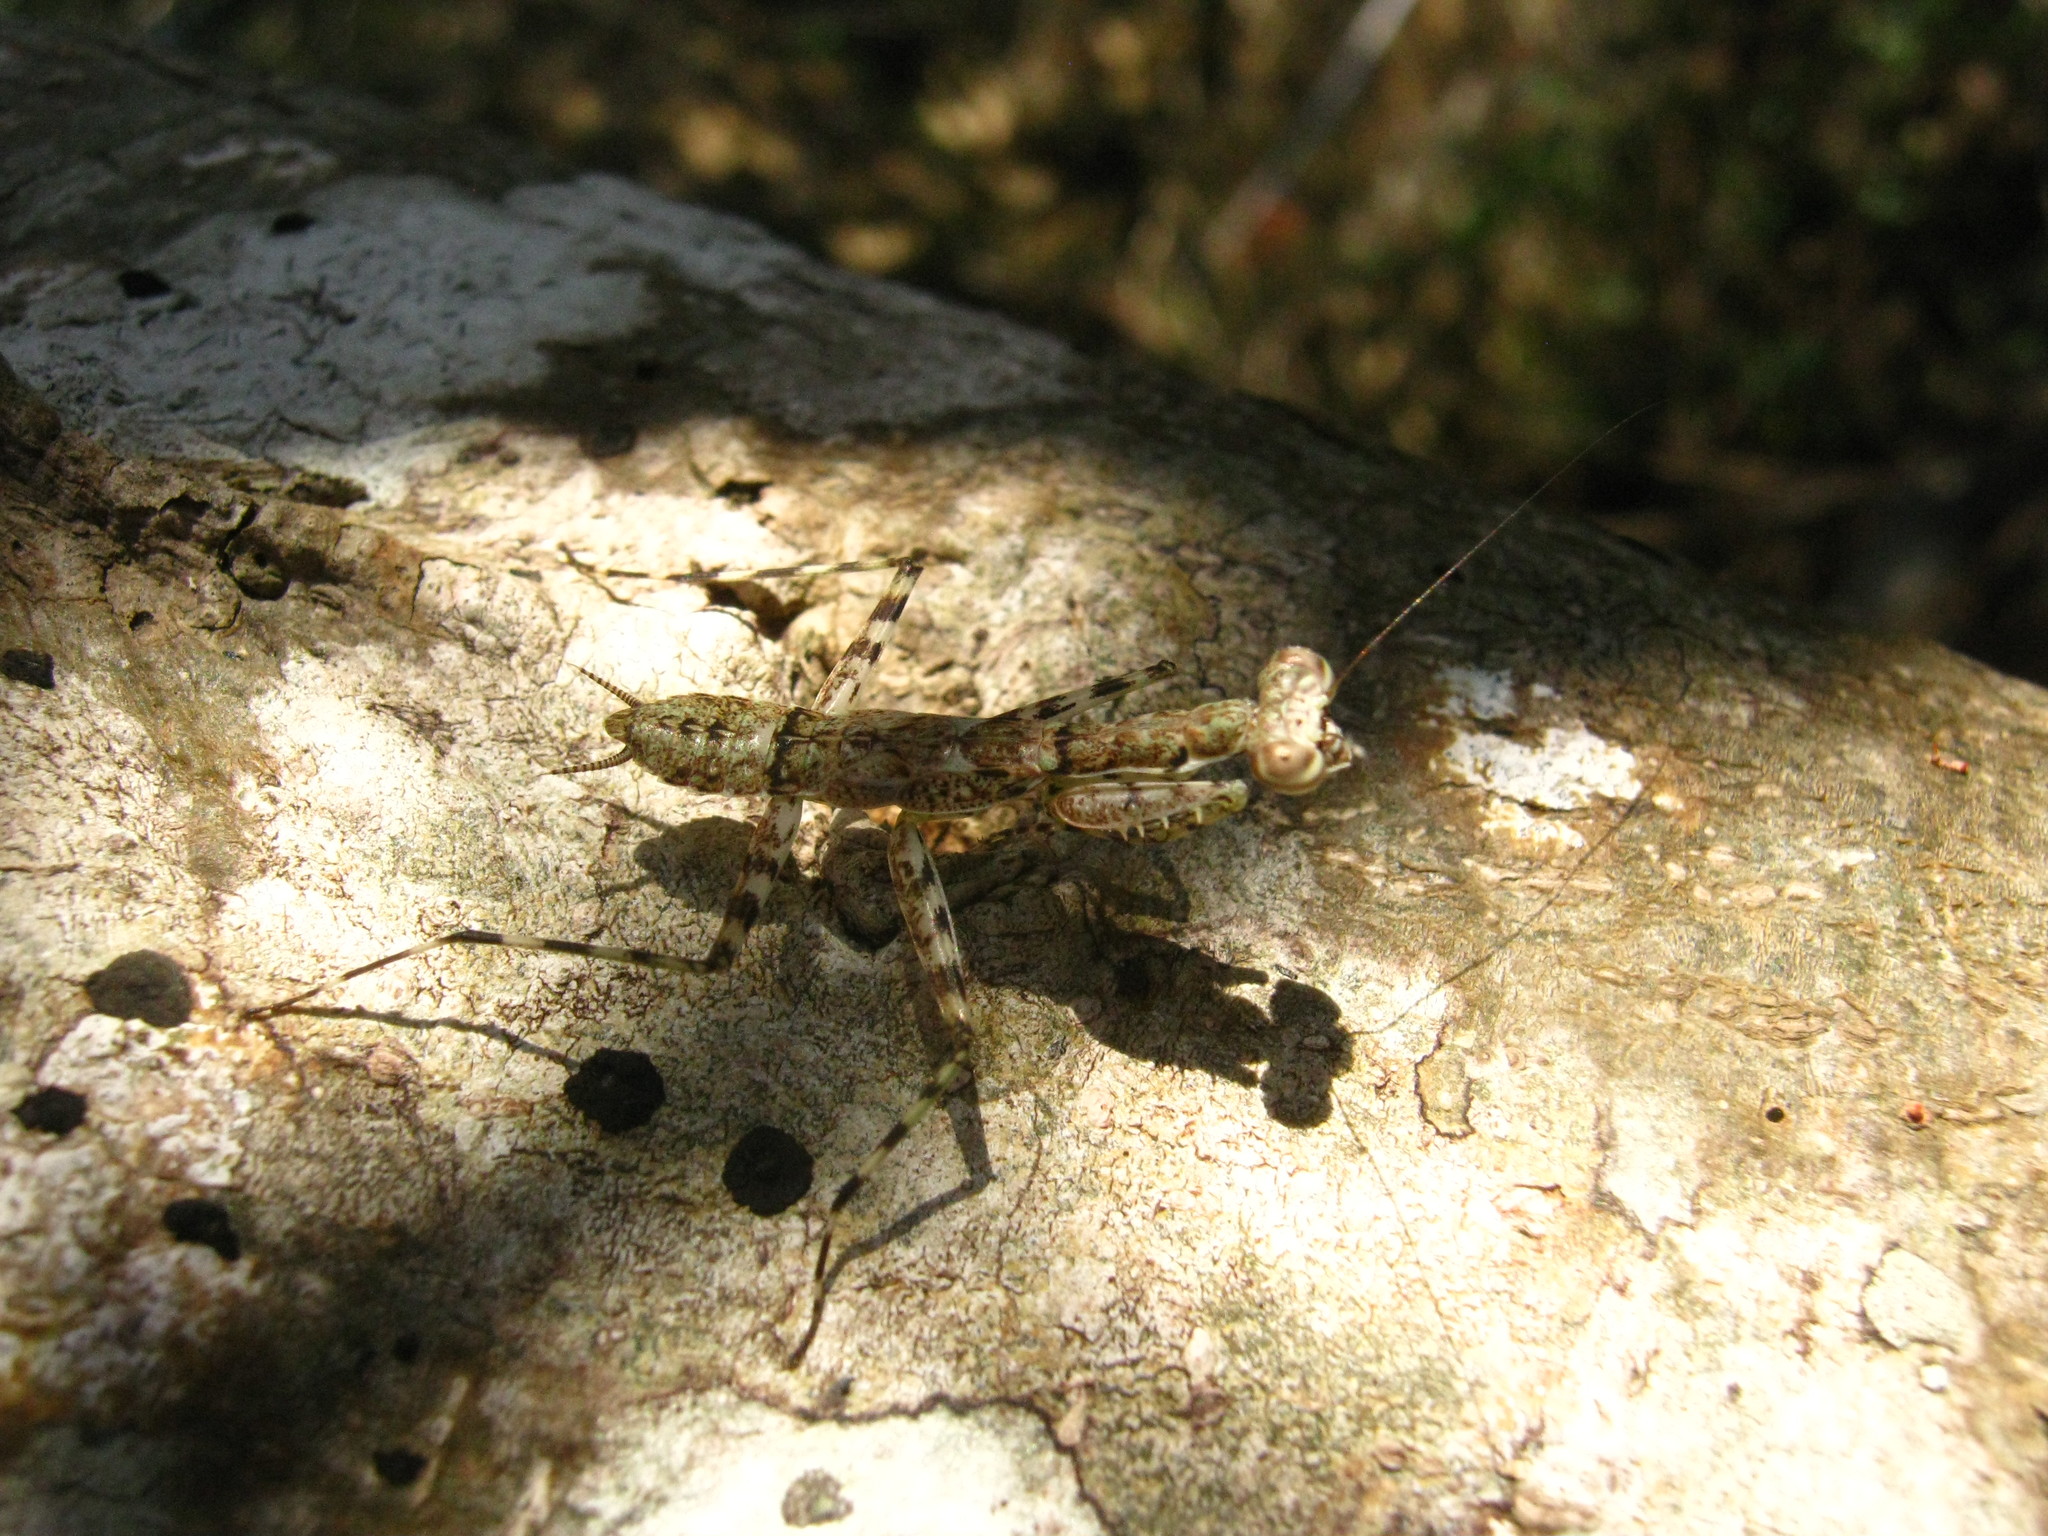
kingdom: Animalia
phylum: Arthropoda
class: Insecta
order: Mantodea
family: Liturgusidae
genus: Liturgusa
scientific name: Liturgusa maya
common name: Mantis
